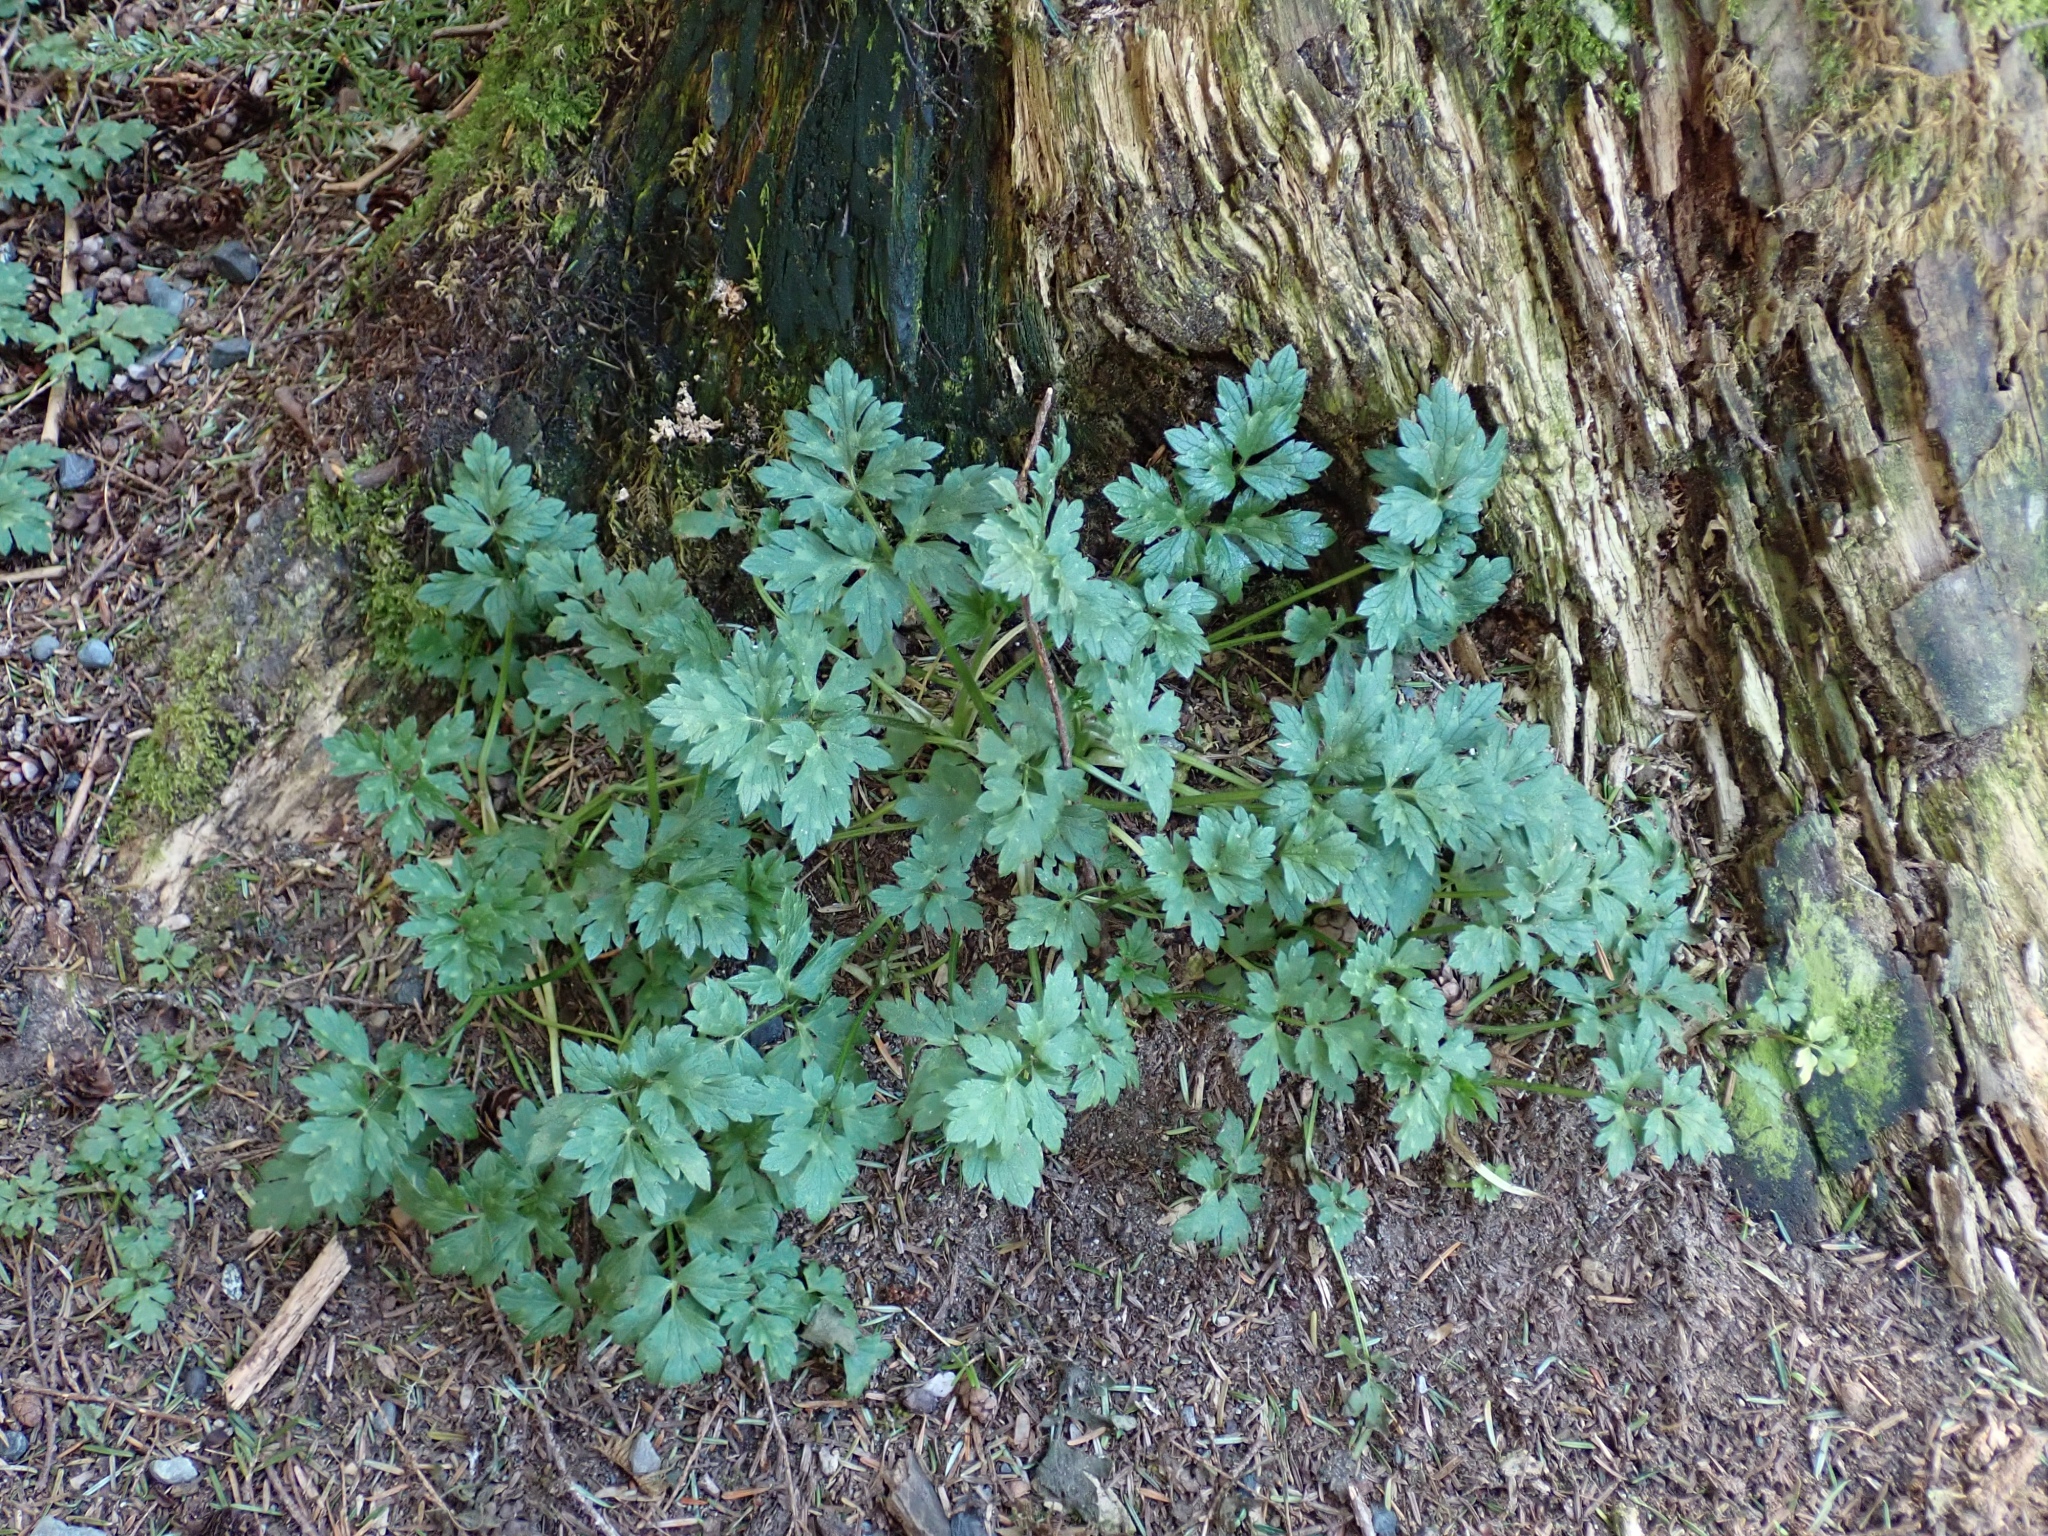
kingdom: Plantae
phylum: Tracheophyta
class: Magnoliopsida
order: Ranunculales
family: Ranunculaceae
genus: Ranunculus
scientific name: Ranunculus repens
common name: Creeping buttercup
